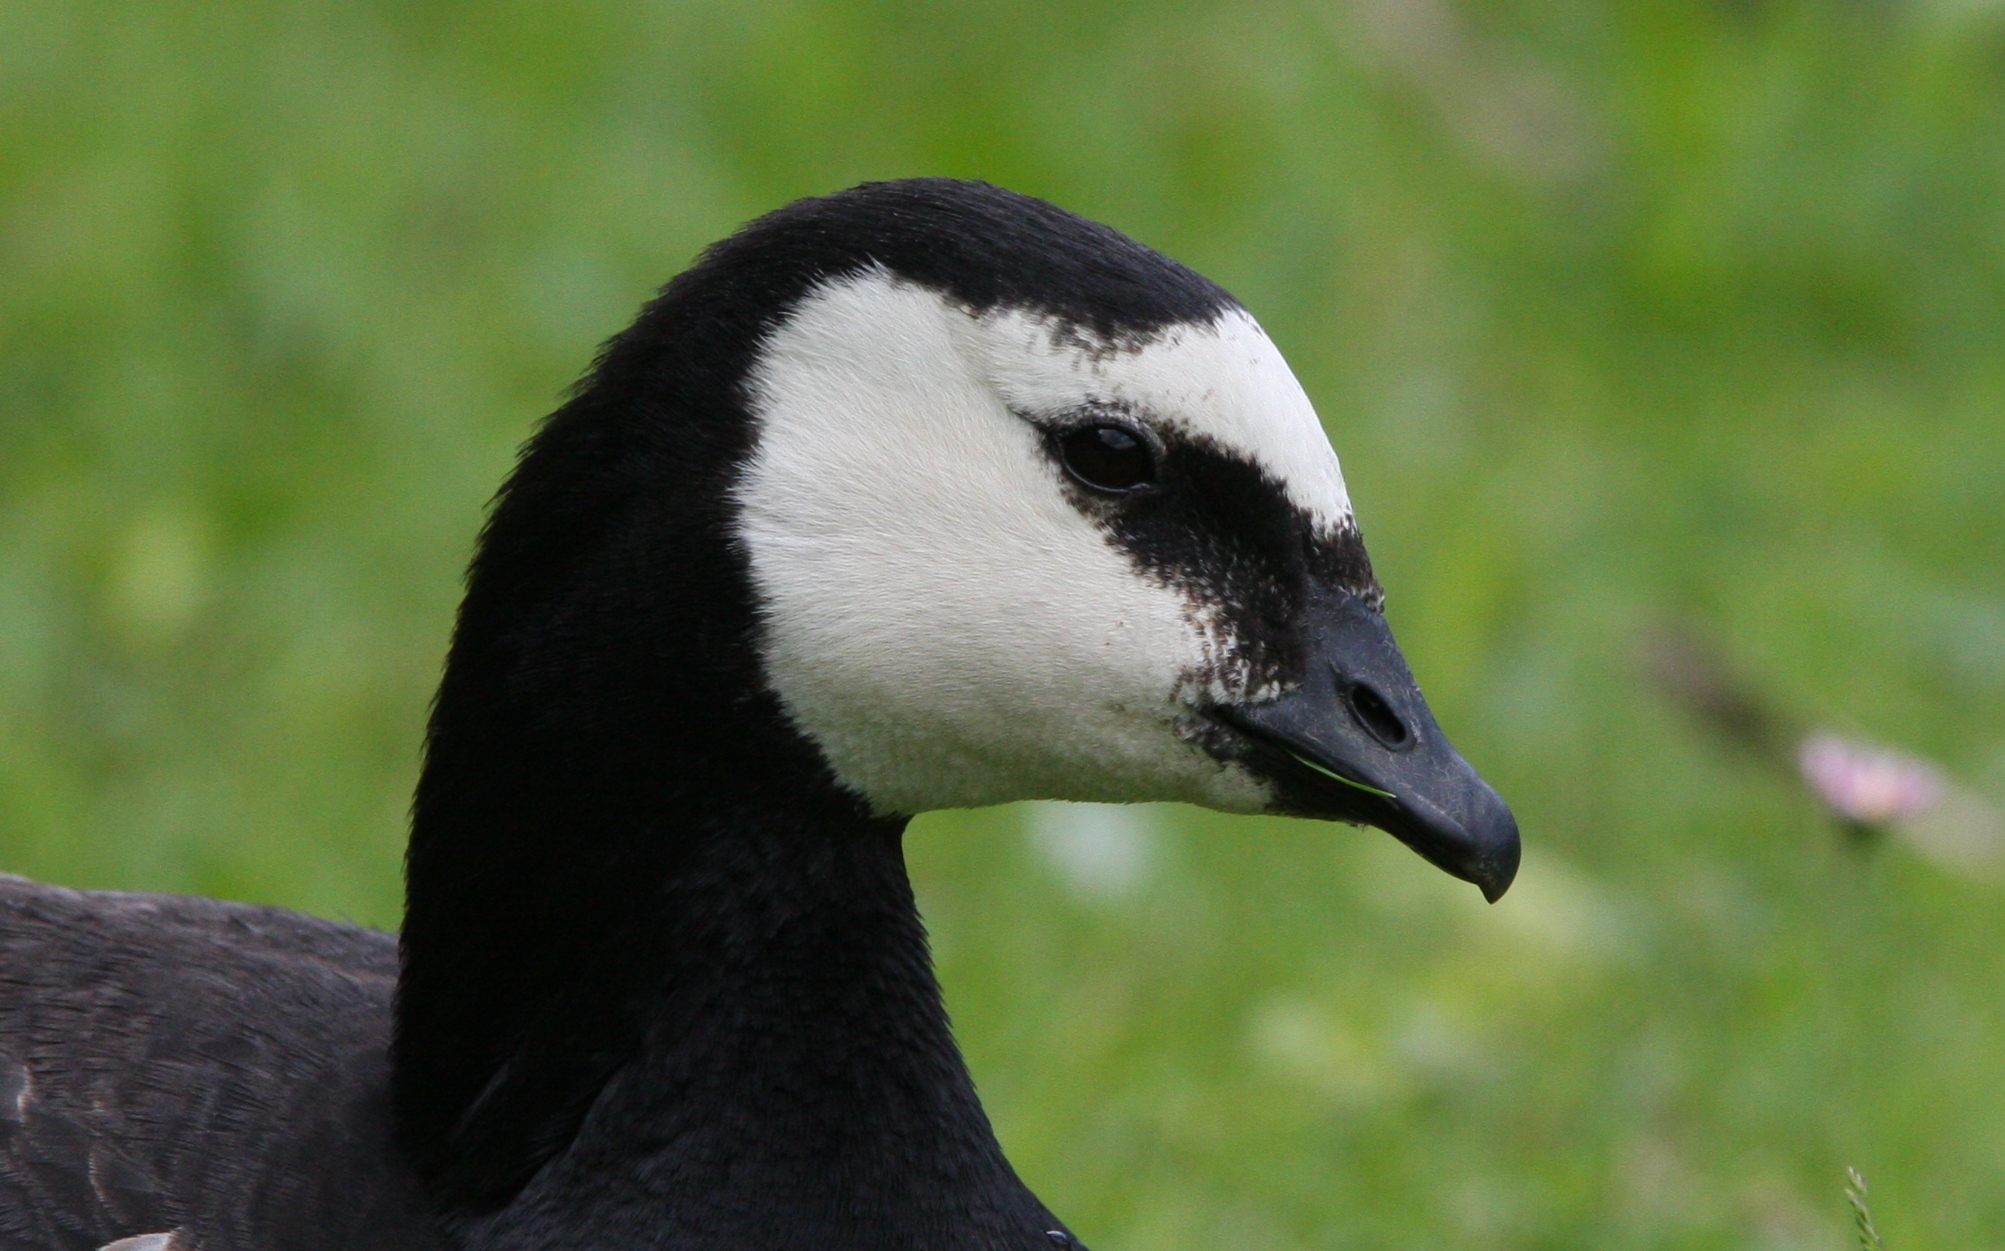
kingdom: Animalia
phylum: Chordata
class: Aves
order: Anseriformes
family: Anatidae
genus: Branta
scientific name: Branta leucopsis
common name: Barnacle goose
